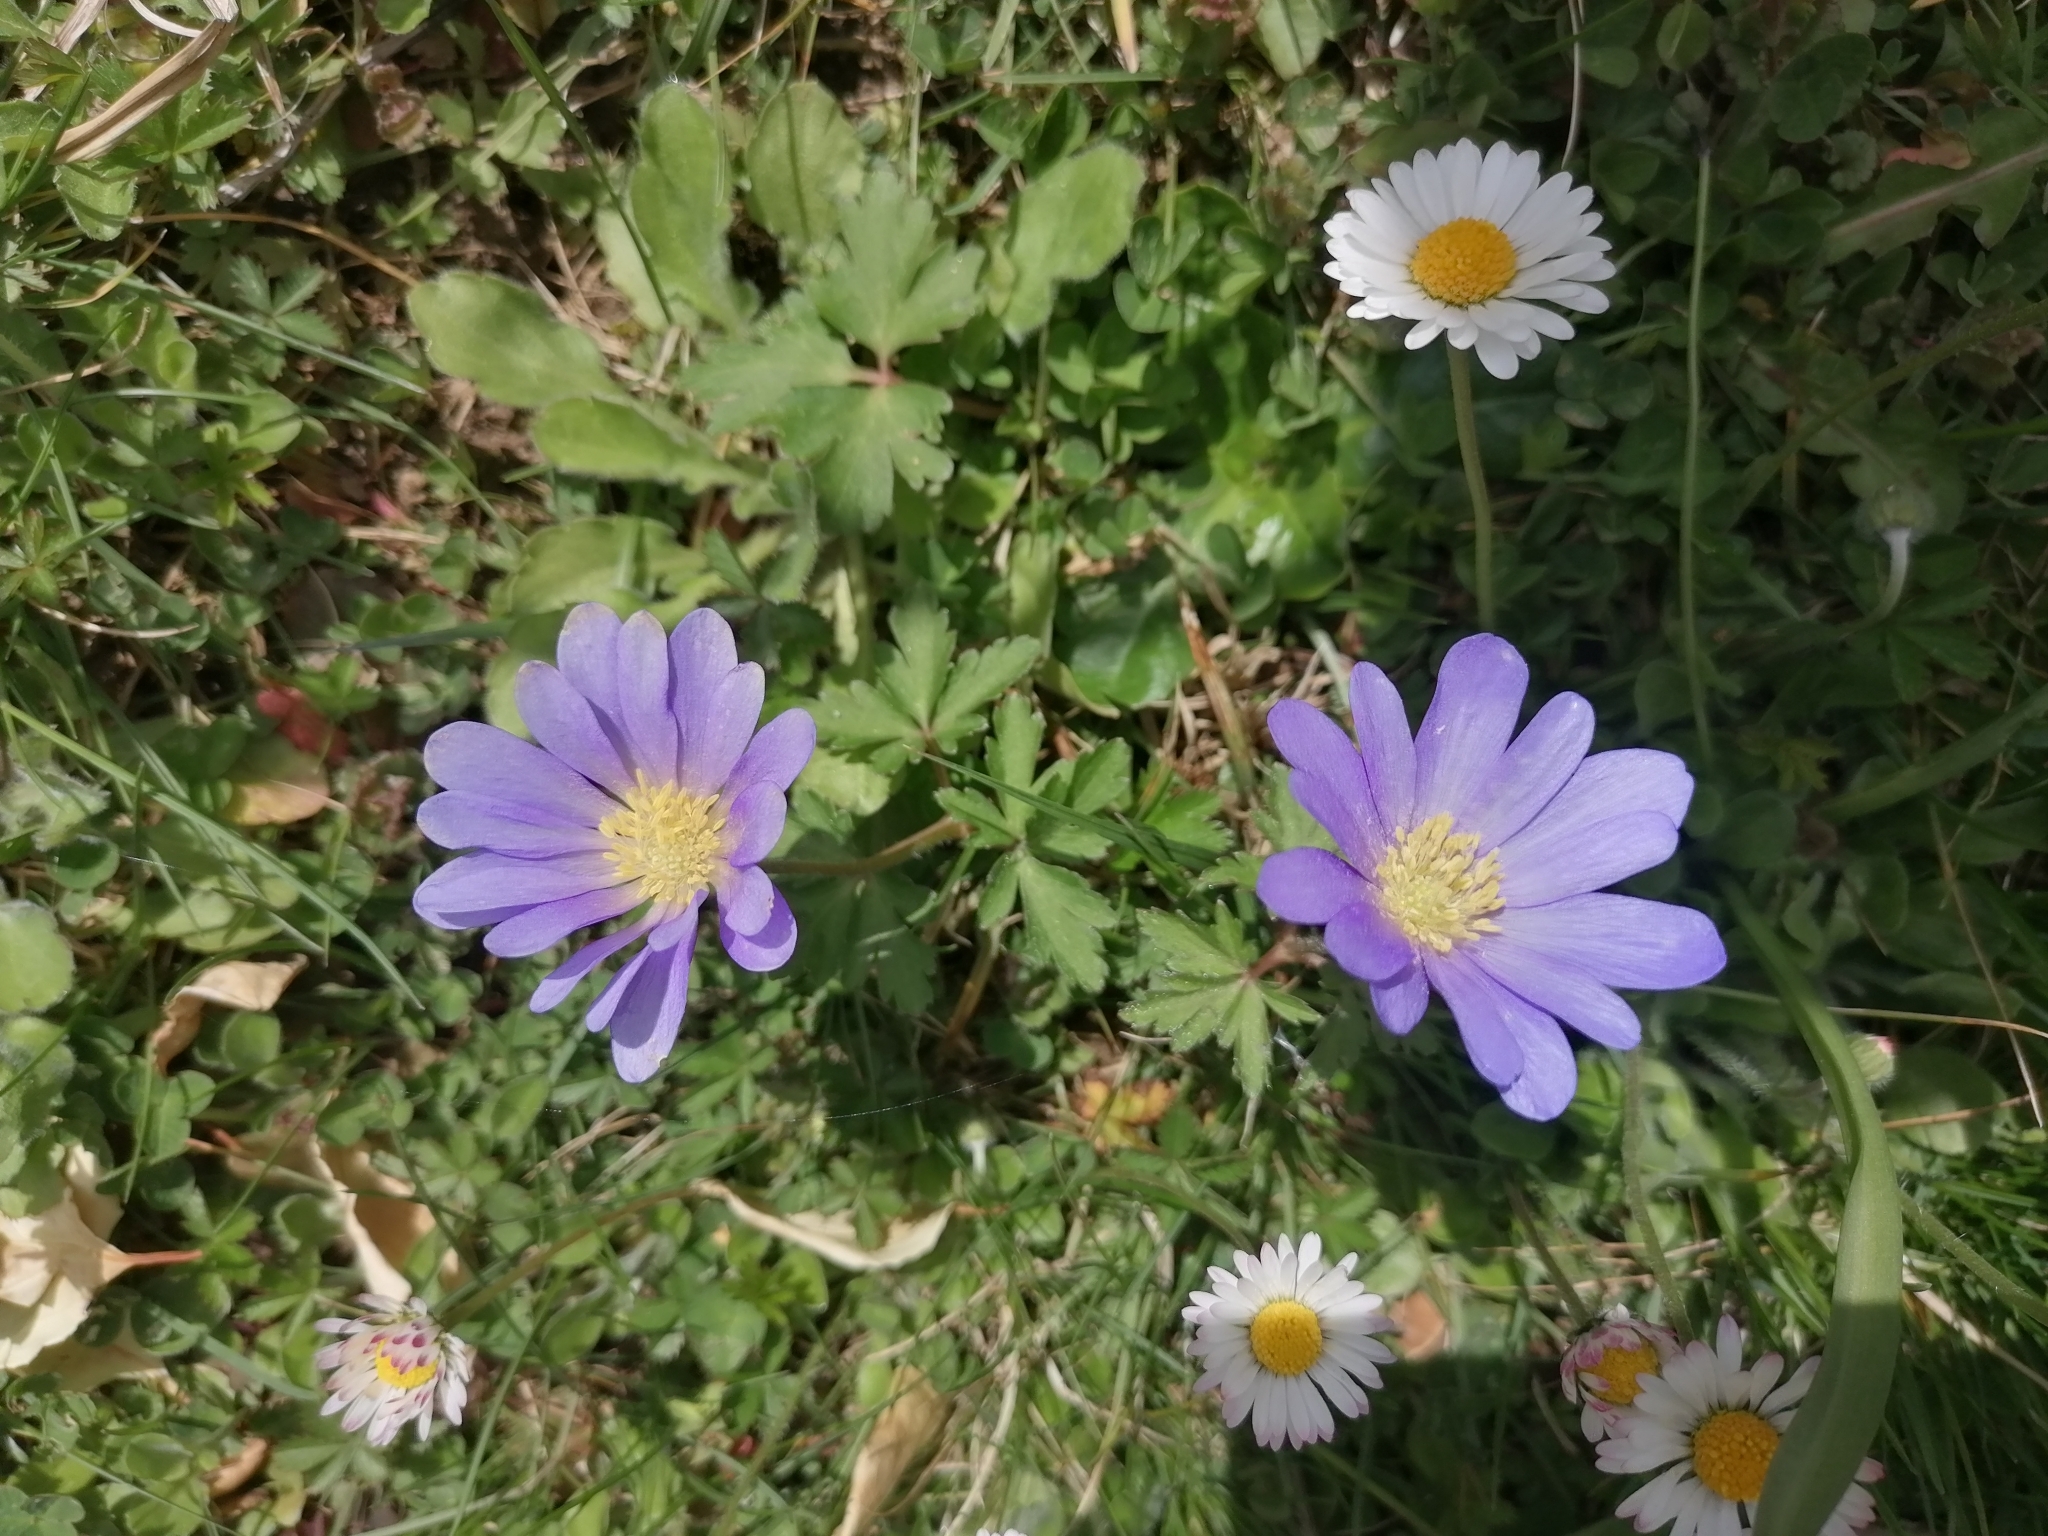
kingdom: Plantae
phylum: Tracheophyta
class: Magnoliopsida
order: Ranunculales
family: Ranunculaceae
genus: Anemone
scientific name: Anemone blanda
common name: Balkan anemone
